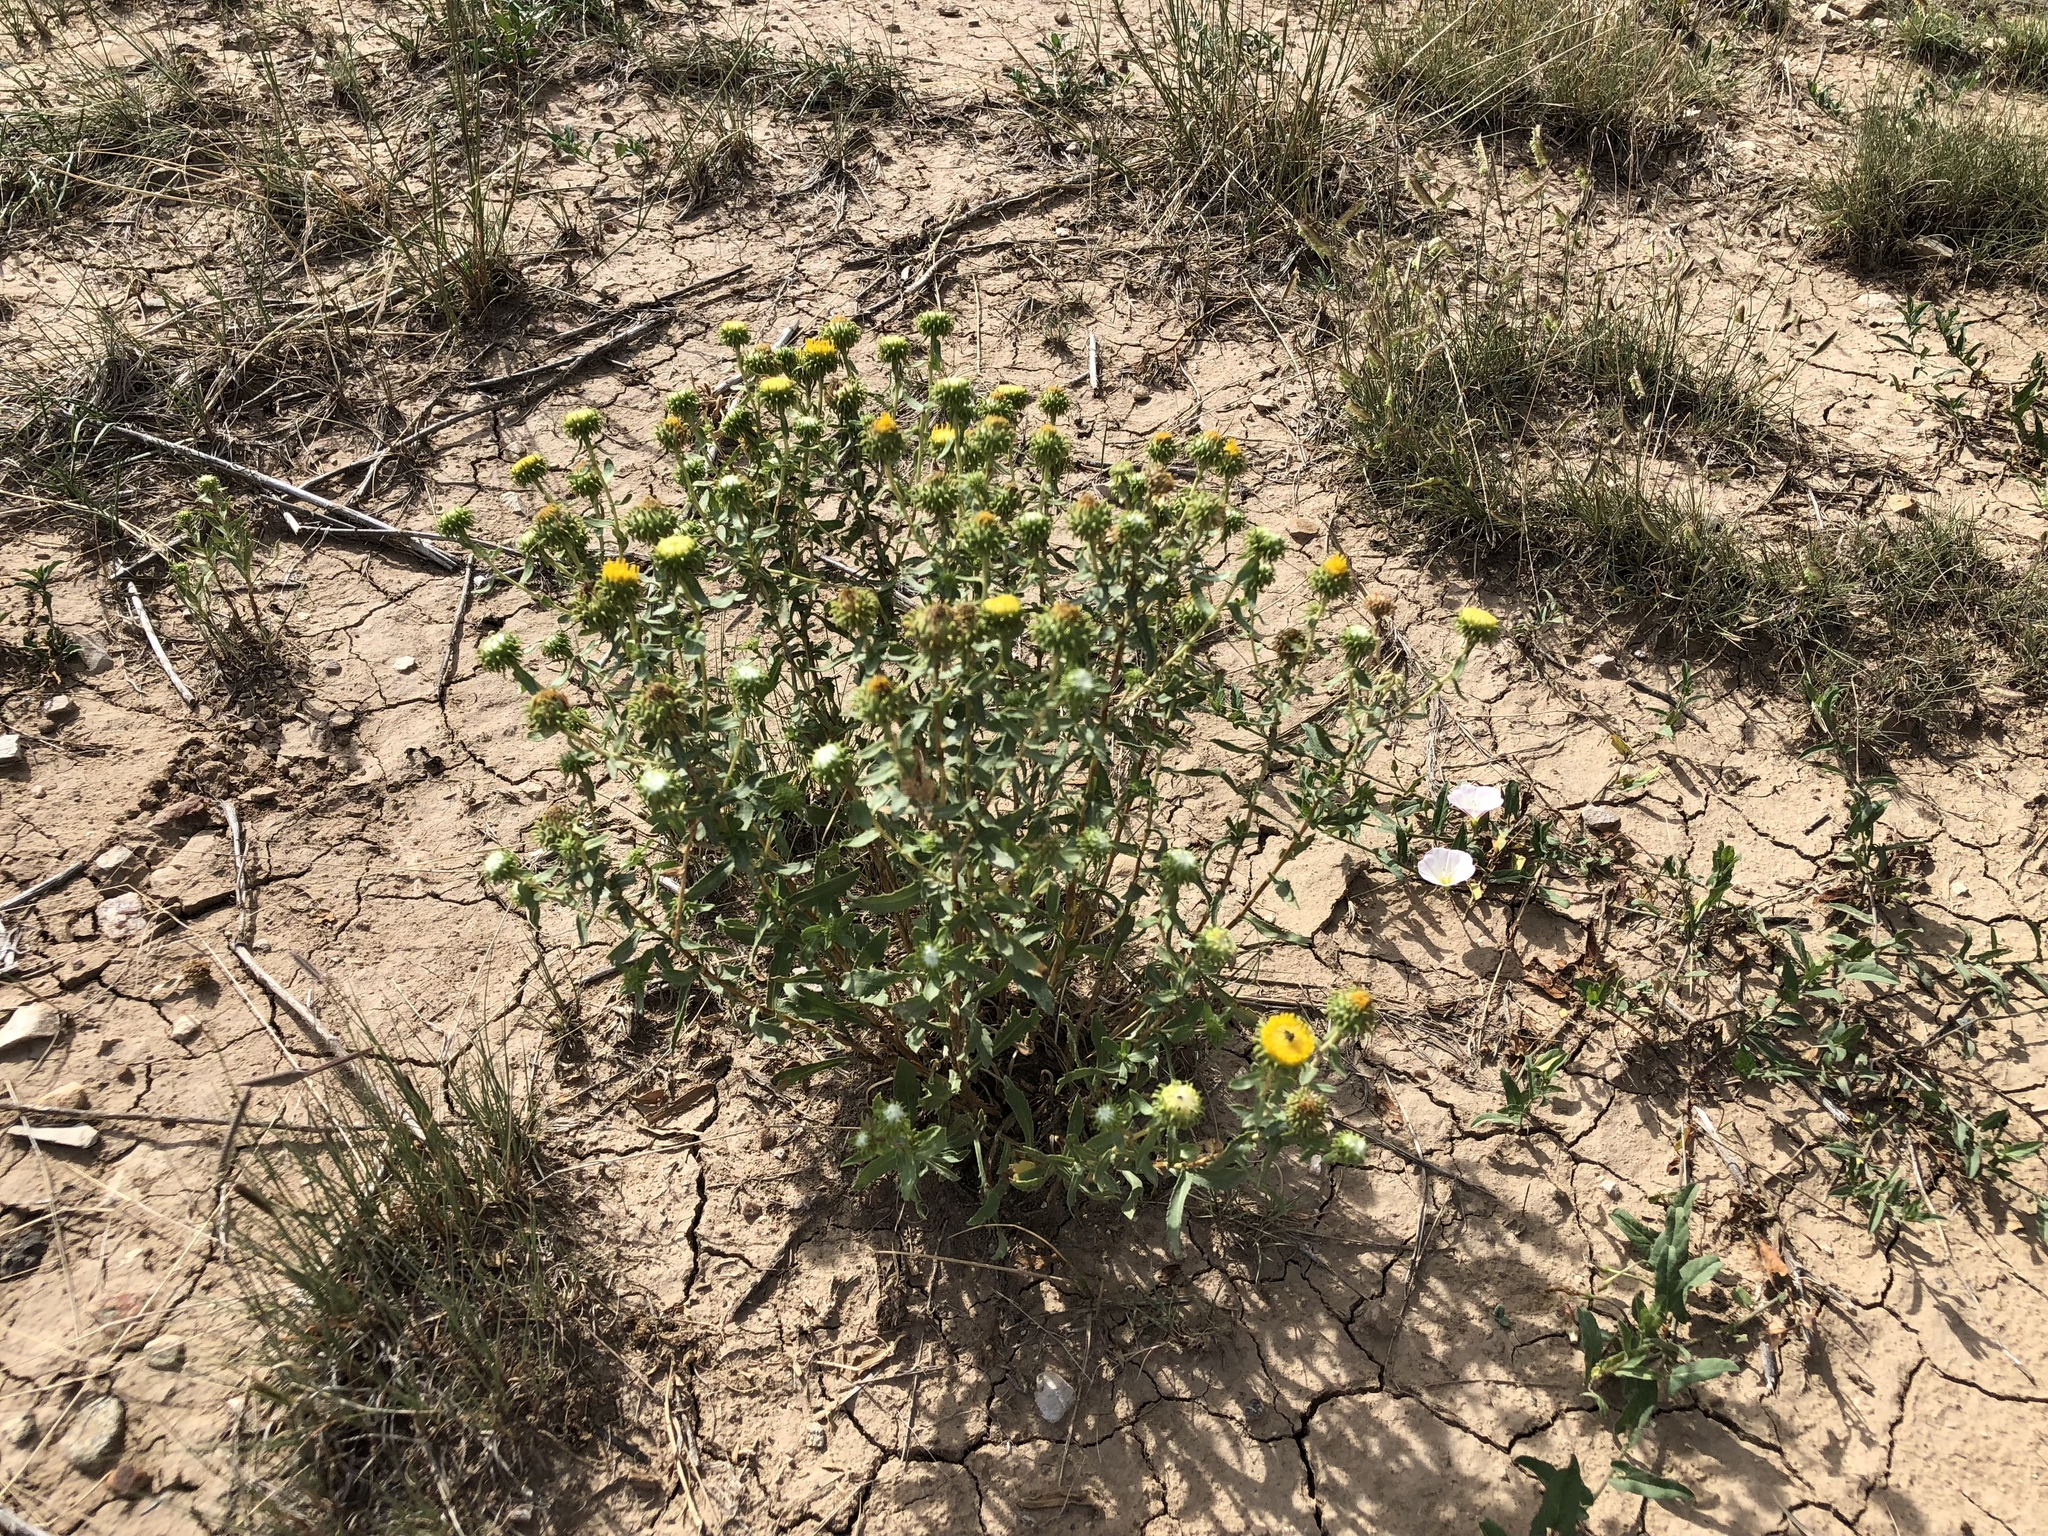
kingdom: Plantae
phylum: Tracheophyta
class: Magnoliopsida
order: Asterales
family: Asteraceae
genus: Grindelia
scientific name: Grindelia squarrosa
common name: Curly-cup gumweed
